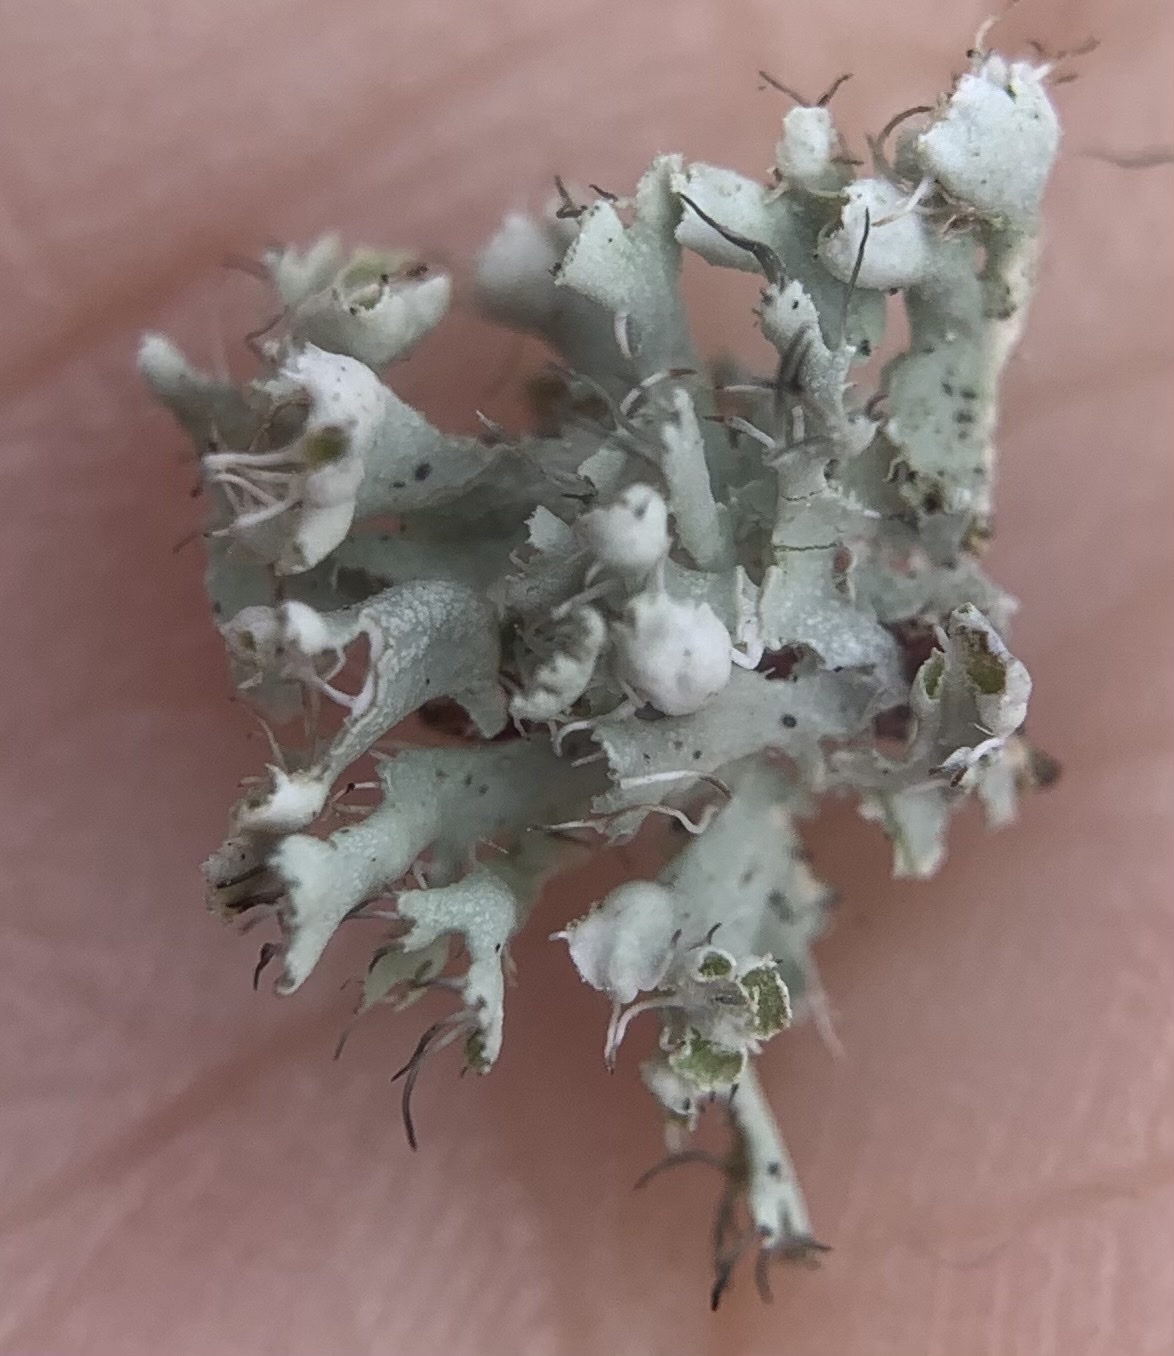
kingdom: Fungi
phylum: Ascomycota
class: Lecanoromycetes
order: Caliciales
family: Physciaceae
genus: Physcia
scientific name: Physcia adscendens
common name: Hooded rosette lichen
